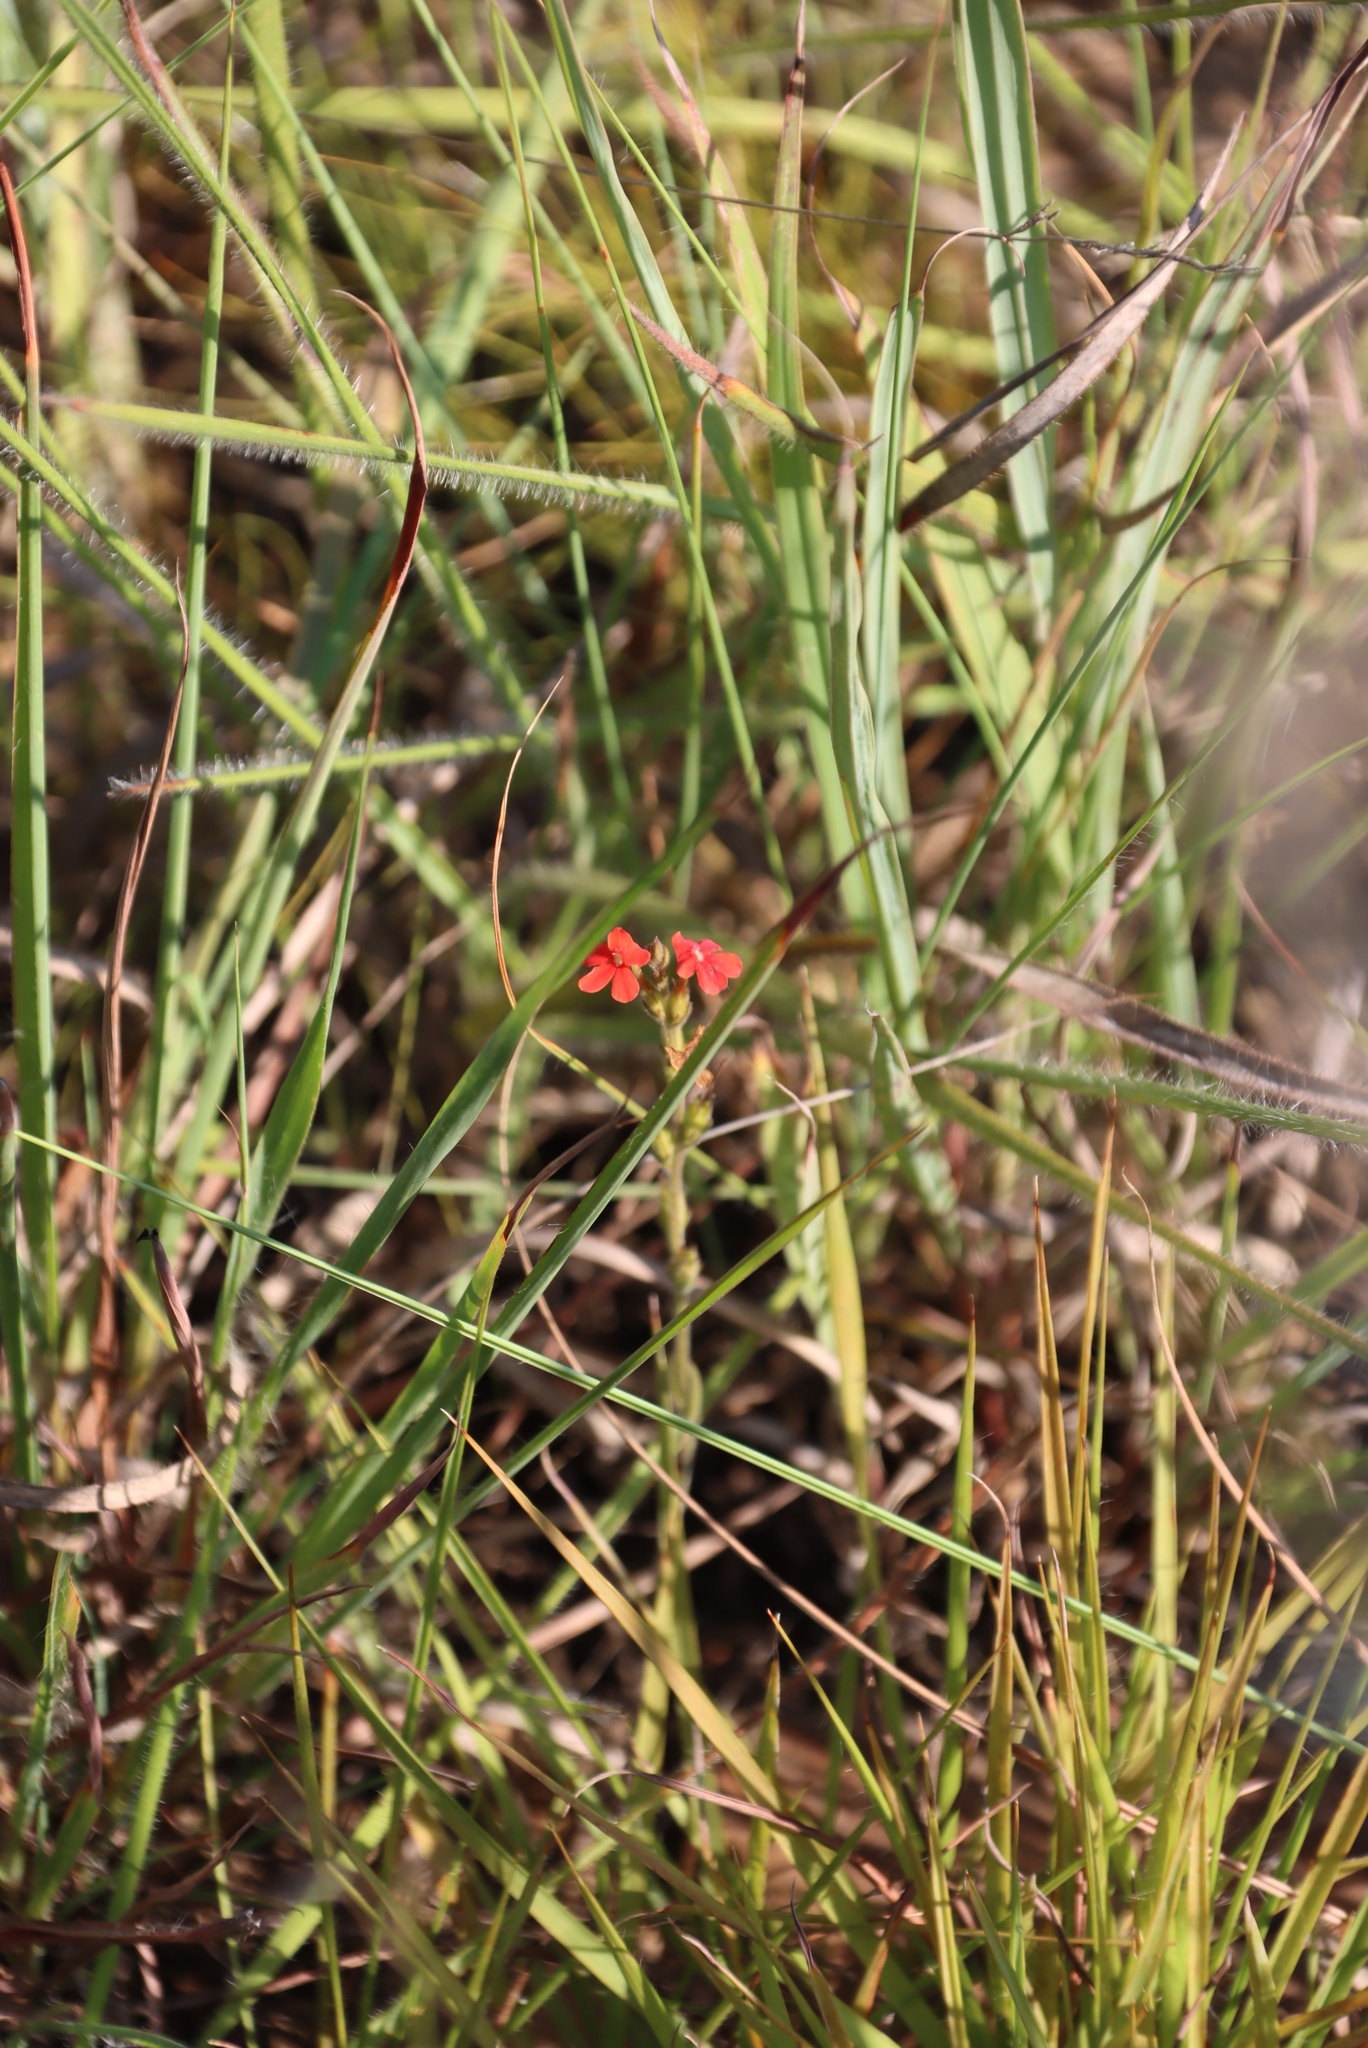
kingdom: Plantae
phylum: Tracheophyta
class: Magnoliopsida
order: Lamiales
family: Orobanchaceae
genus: Striga
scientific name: Striga elegans
